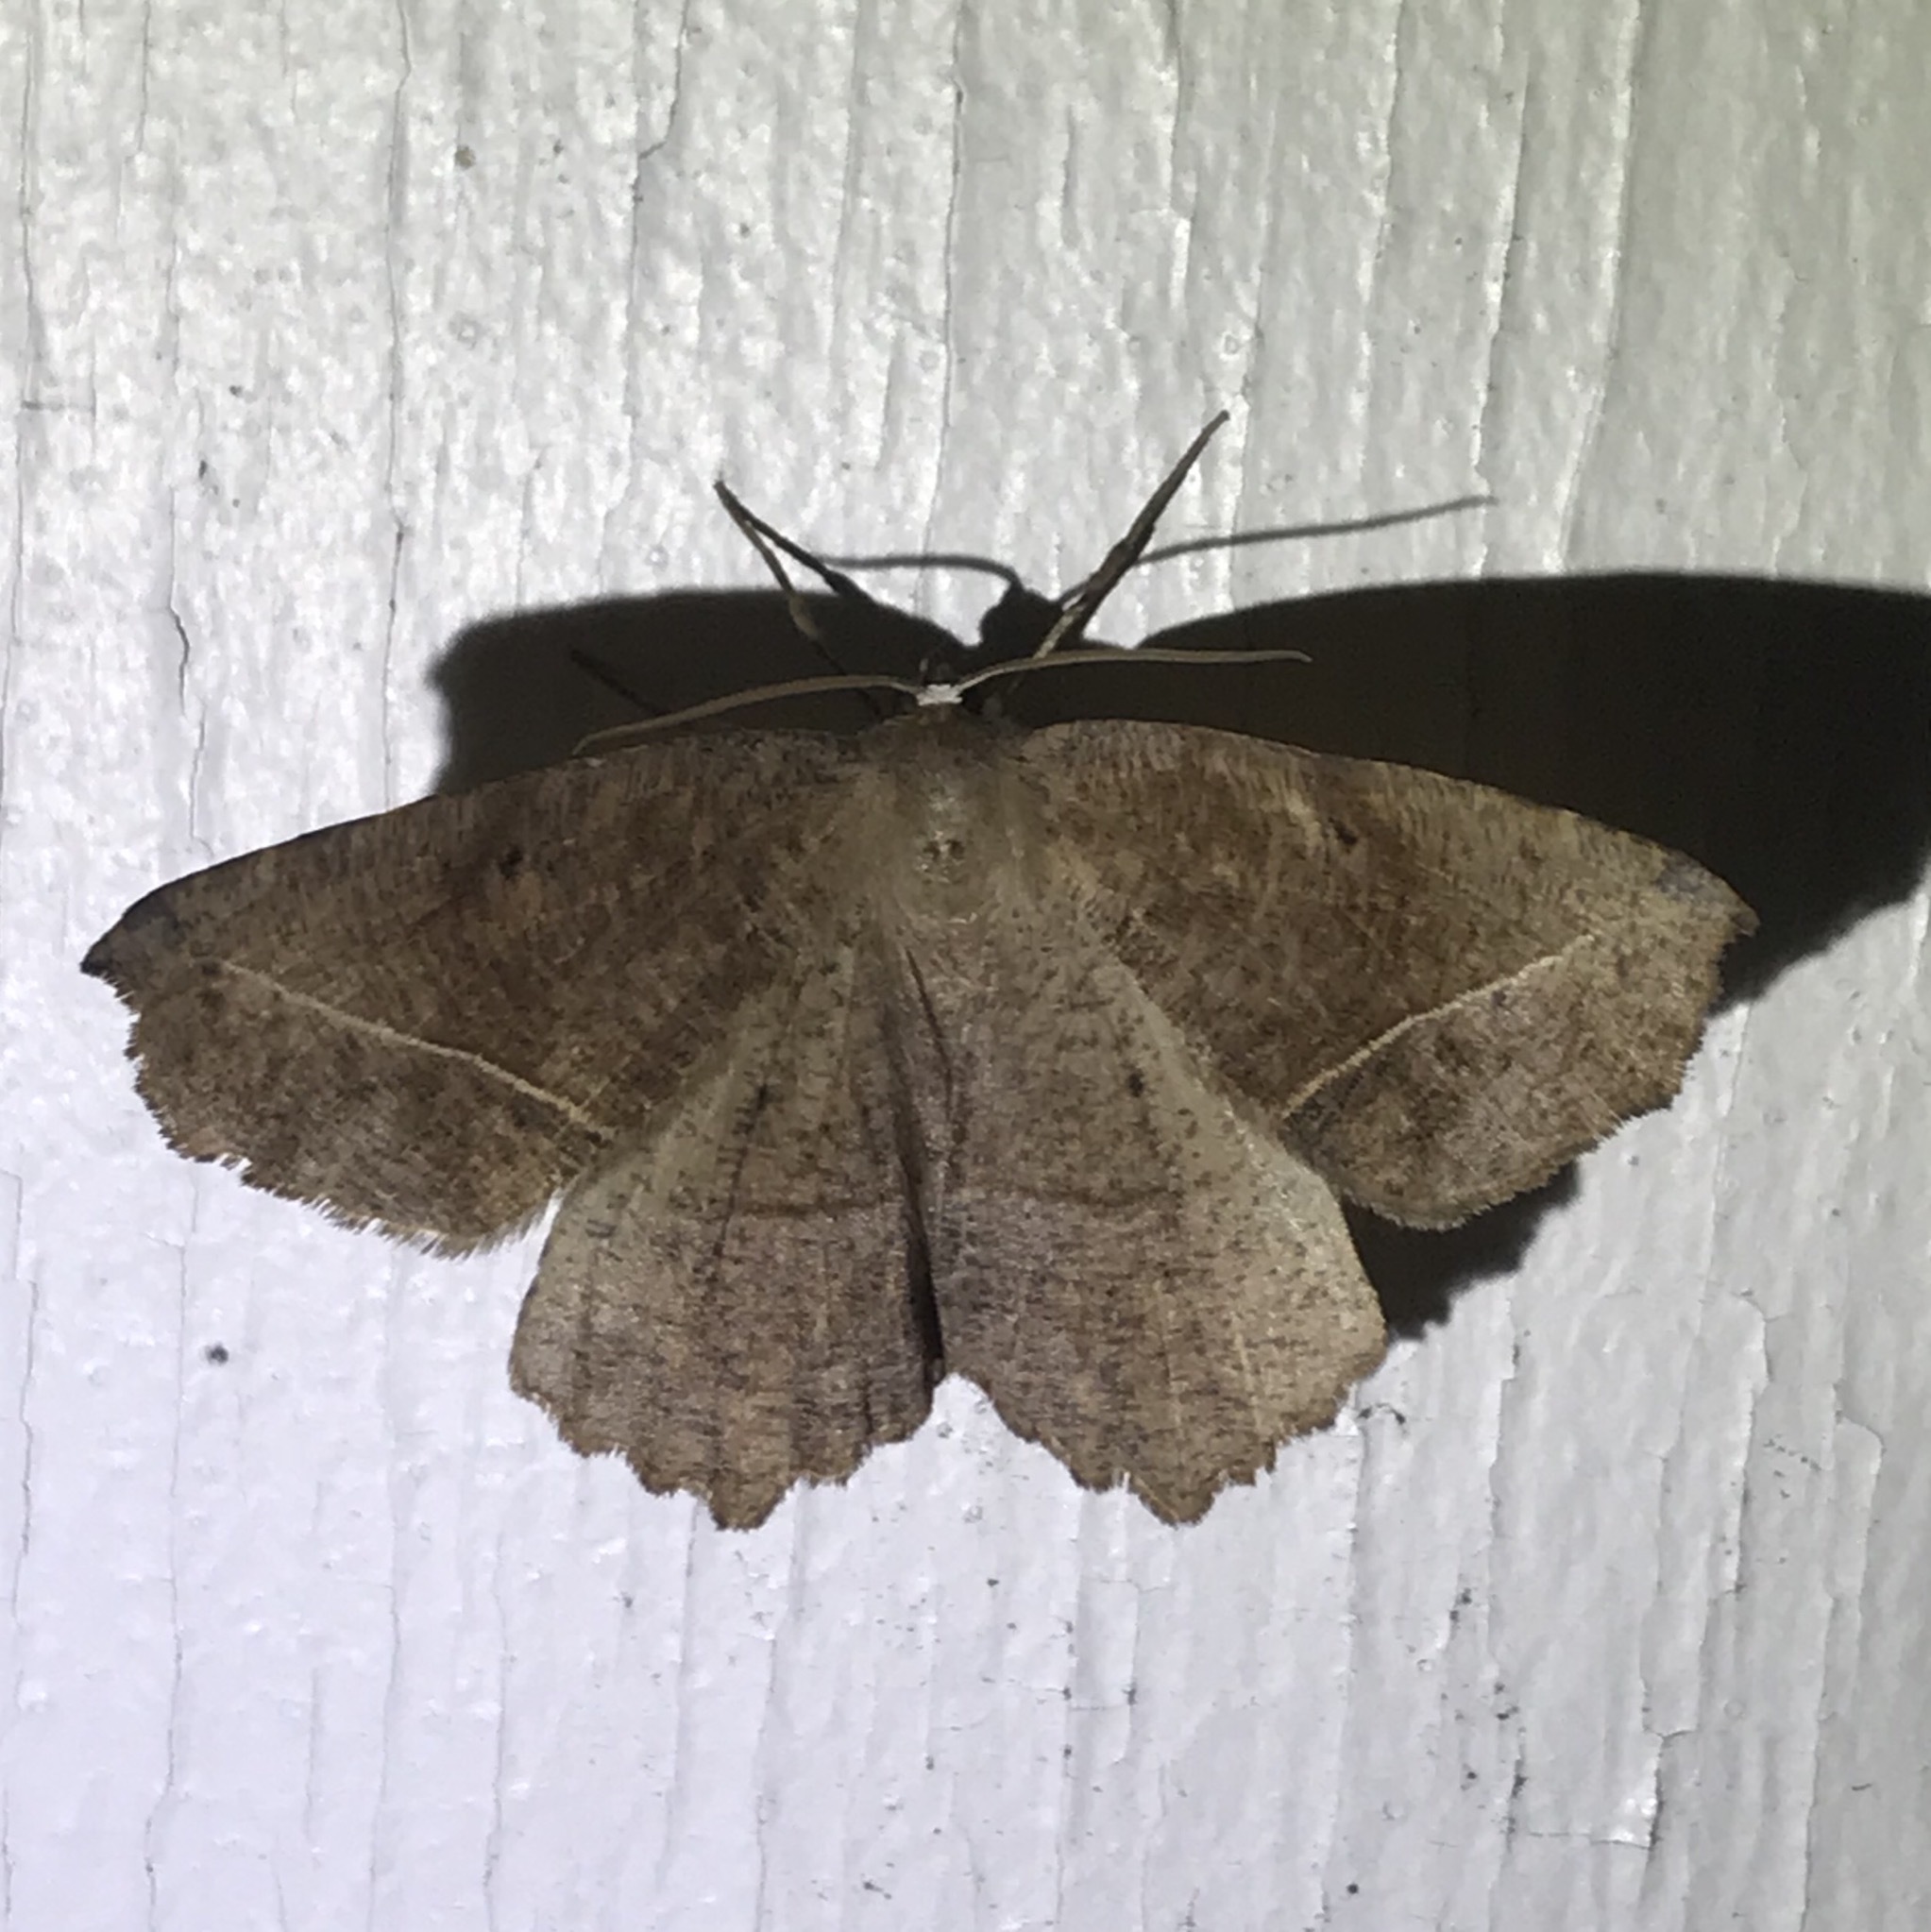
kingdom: Animalia
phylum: Arthropoda
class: Insecta
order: Lepidoptera
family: Geometridae
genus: Eutrapela
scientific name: Eutrapela clemataria
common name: Curved-toothed geometer
